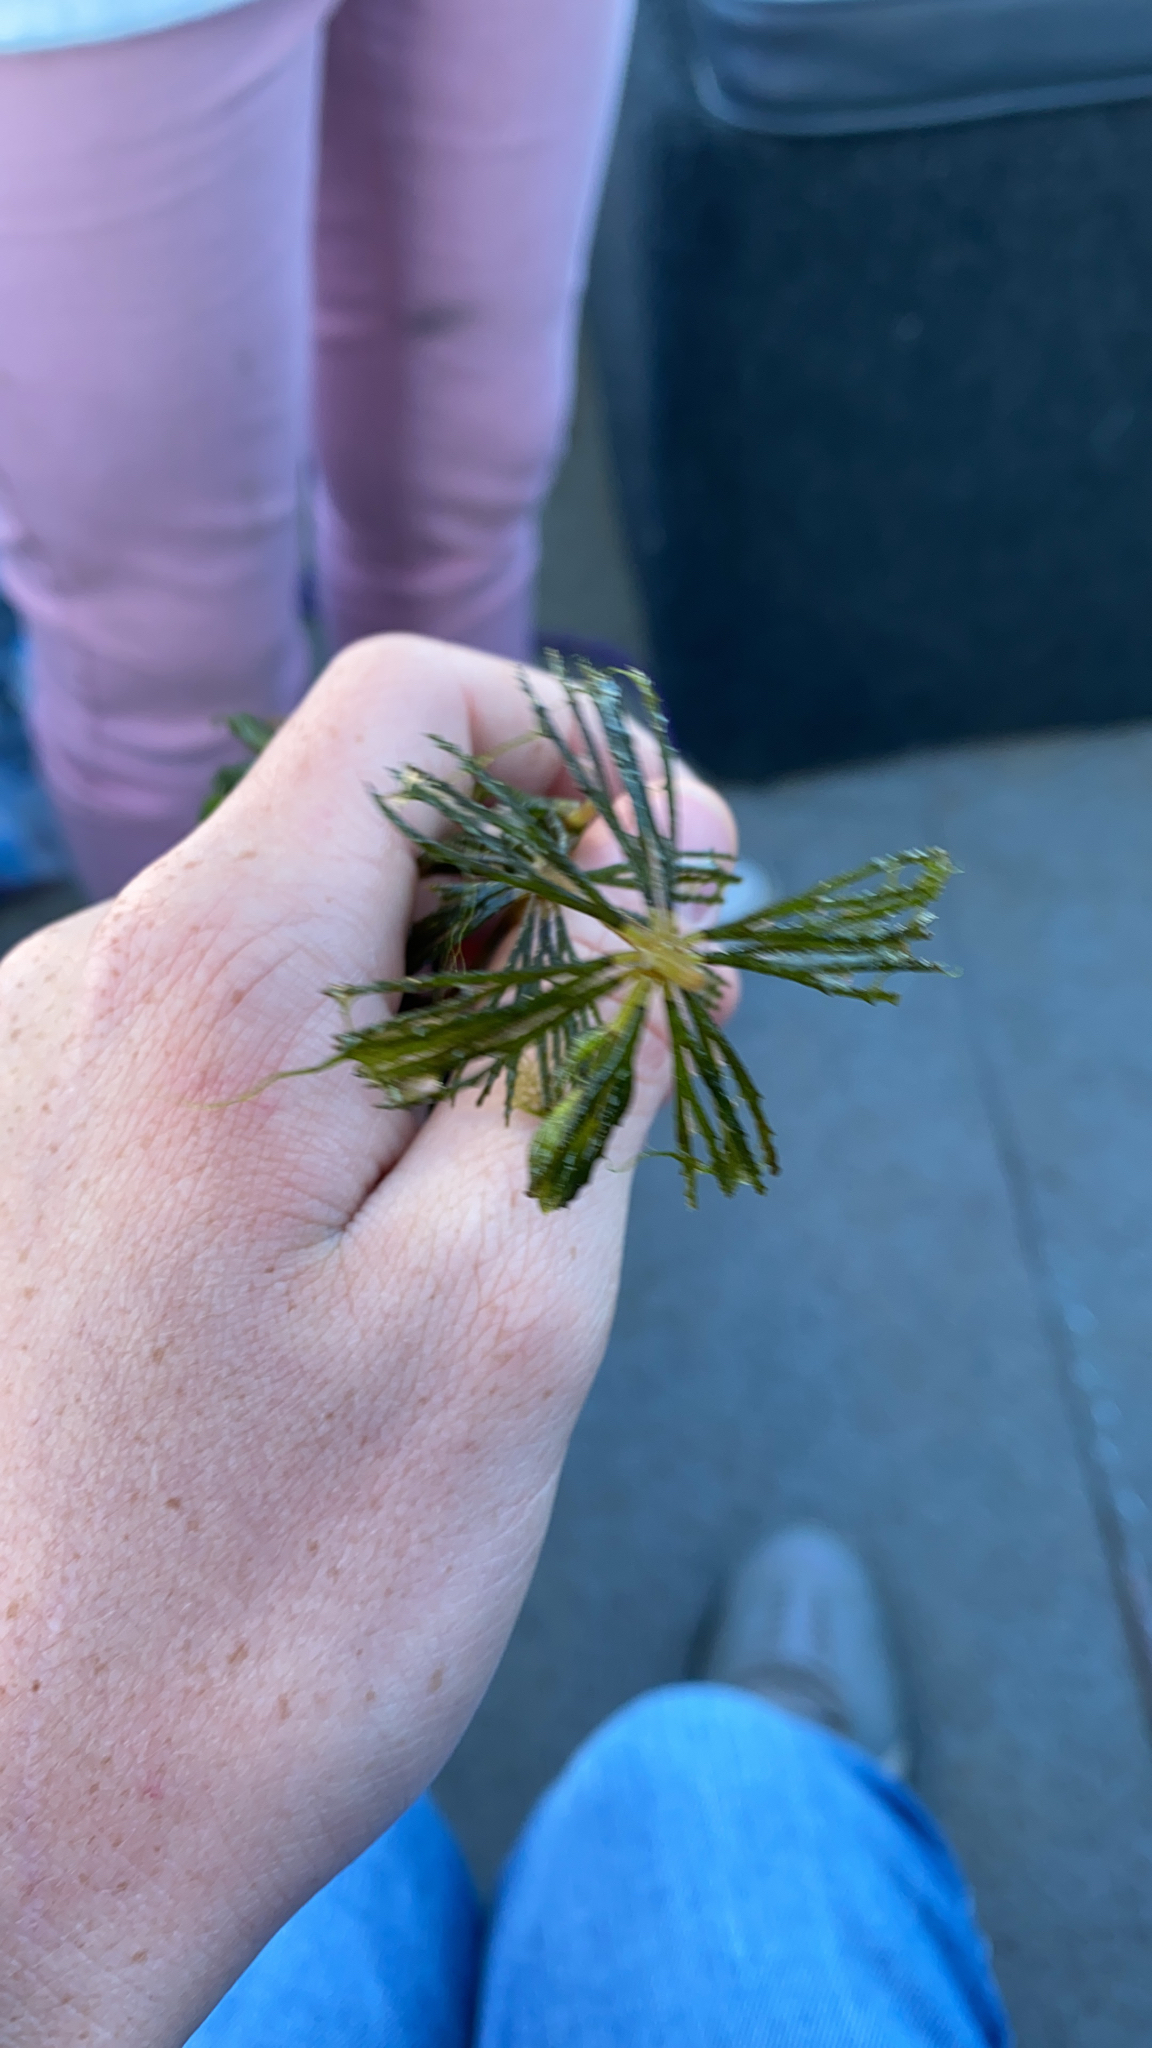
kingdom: Plantae
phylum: Tracheophyta
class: Magnoliopsida
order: Ceratophyllales
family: Ceratophyllaceae
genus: Ceratophyllum
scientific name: Ceratophyllum demersum
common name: Rigid hornwort
